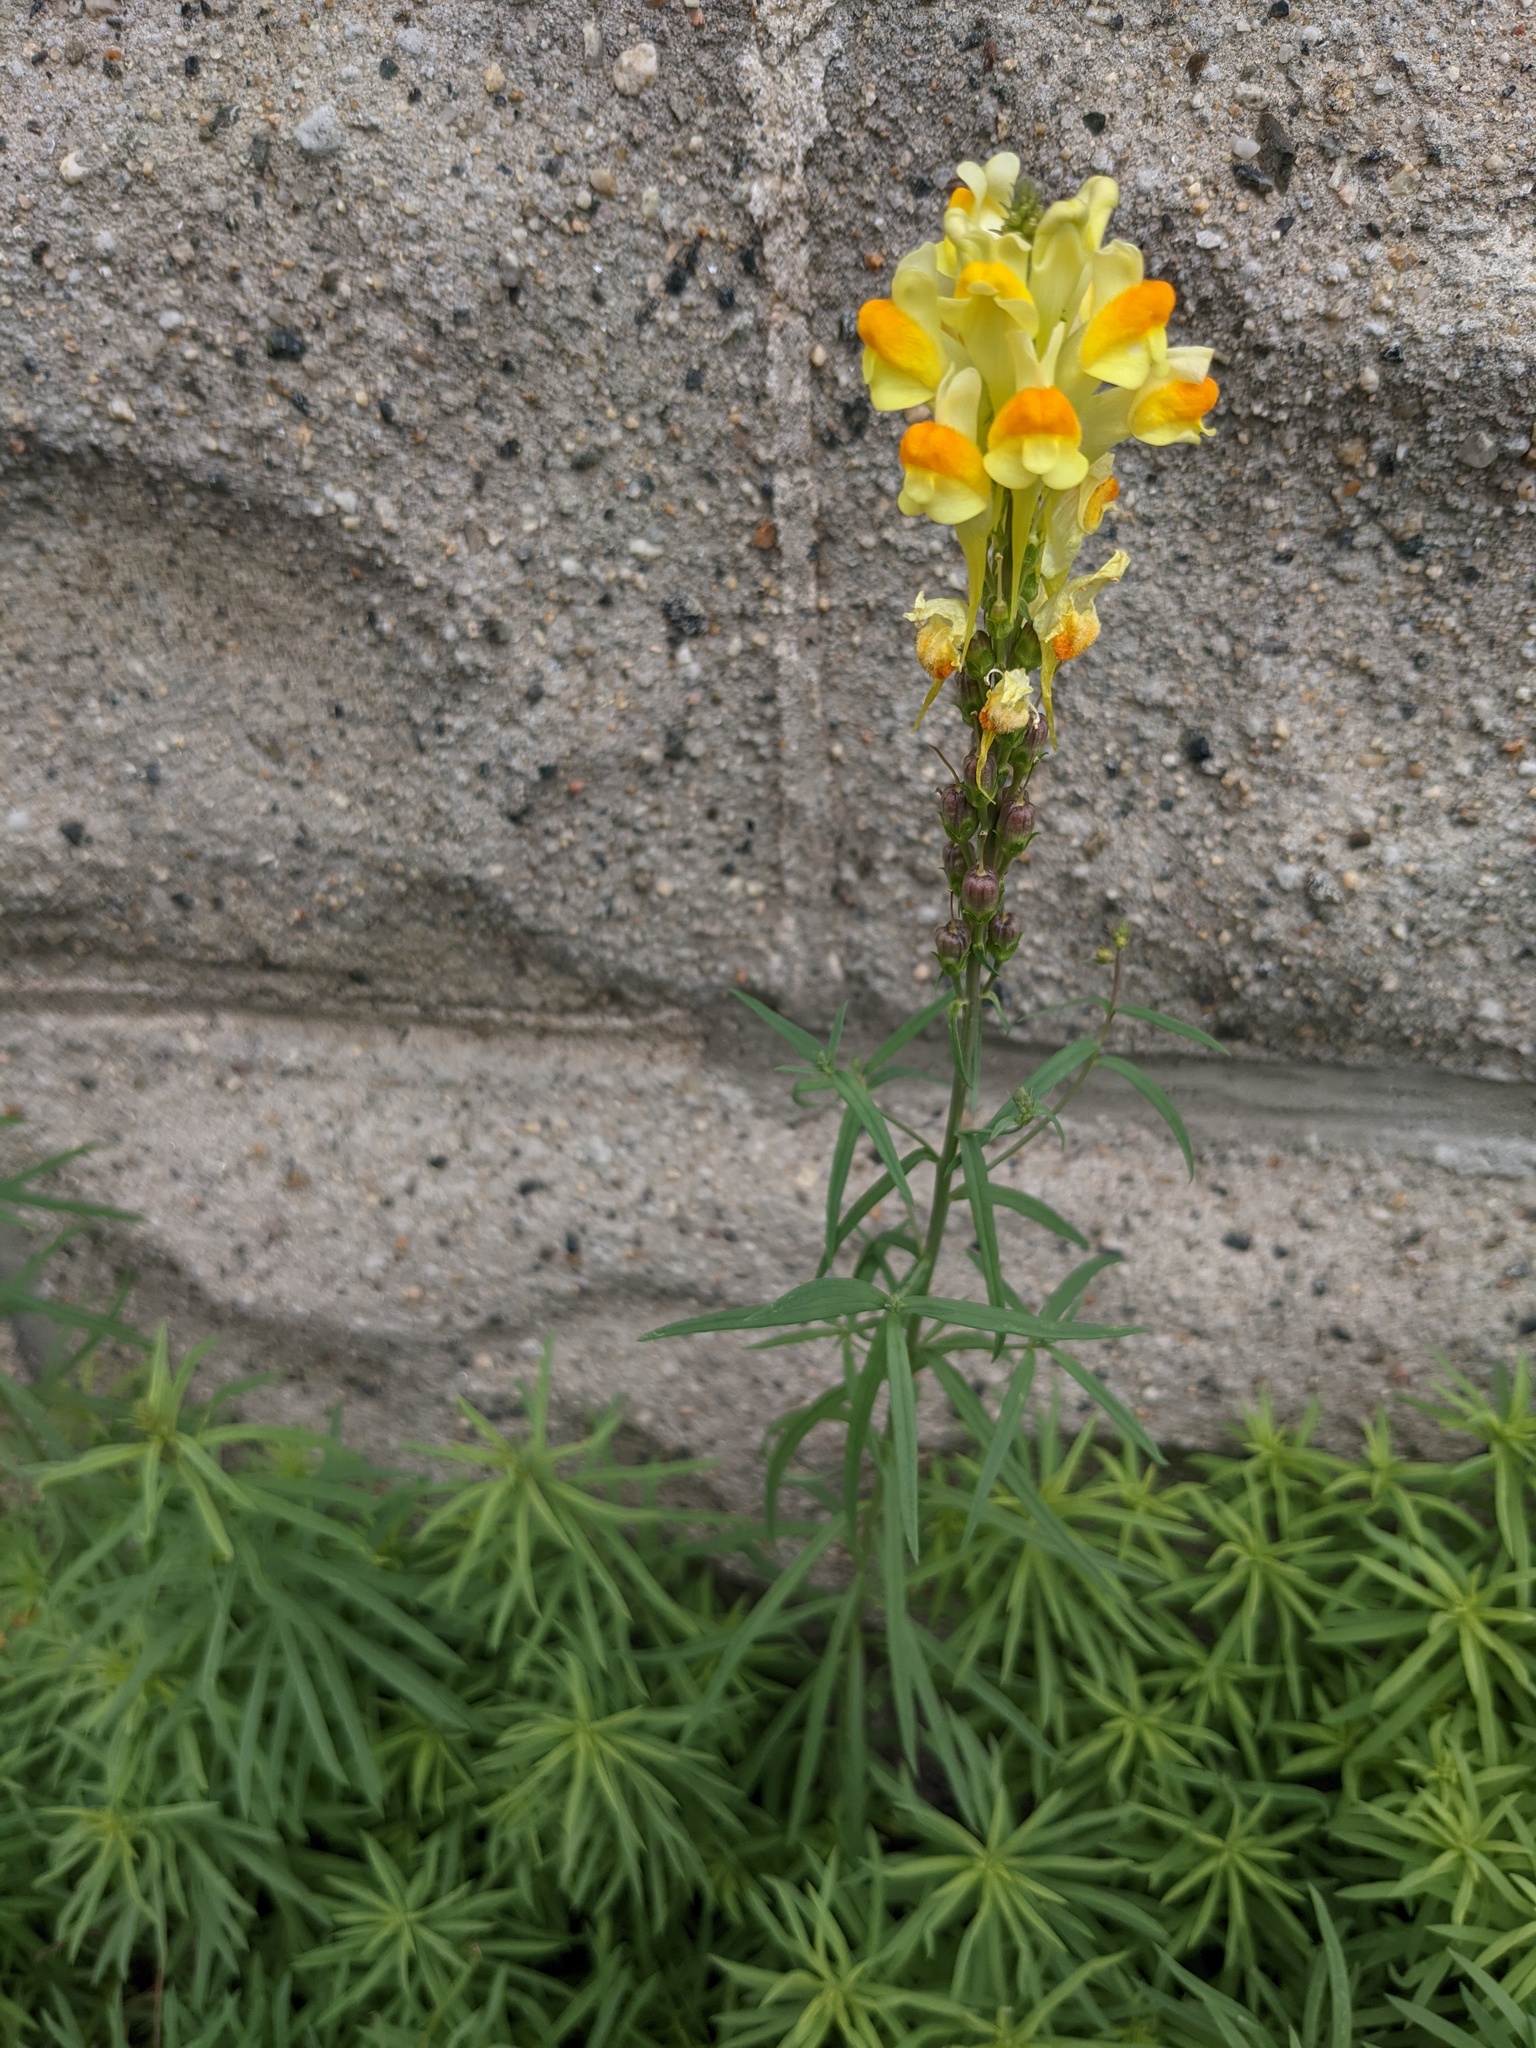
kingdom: Plantae
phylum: Tracheophyta
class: Magnoliopsida
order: Lamiales
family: Plantaginaceae
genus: Linaria
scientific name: Linaria vulgaris
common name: Butter and eggs
